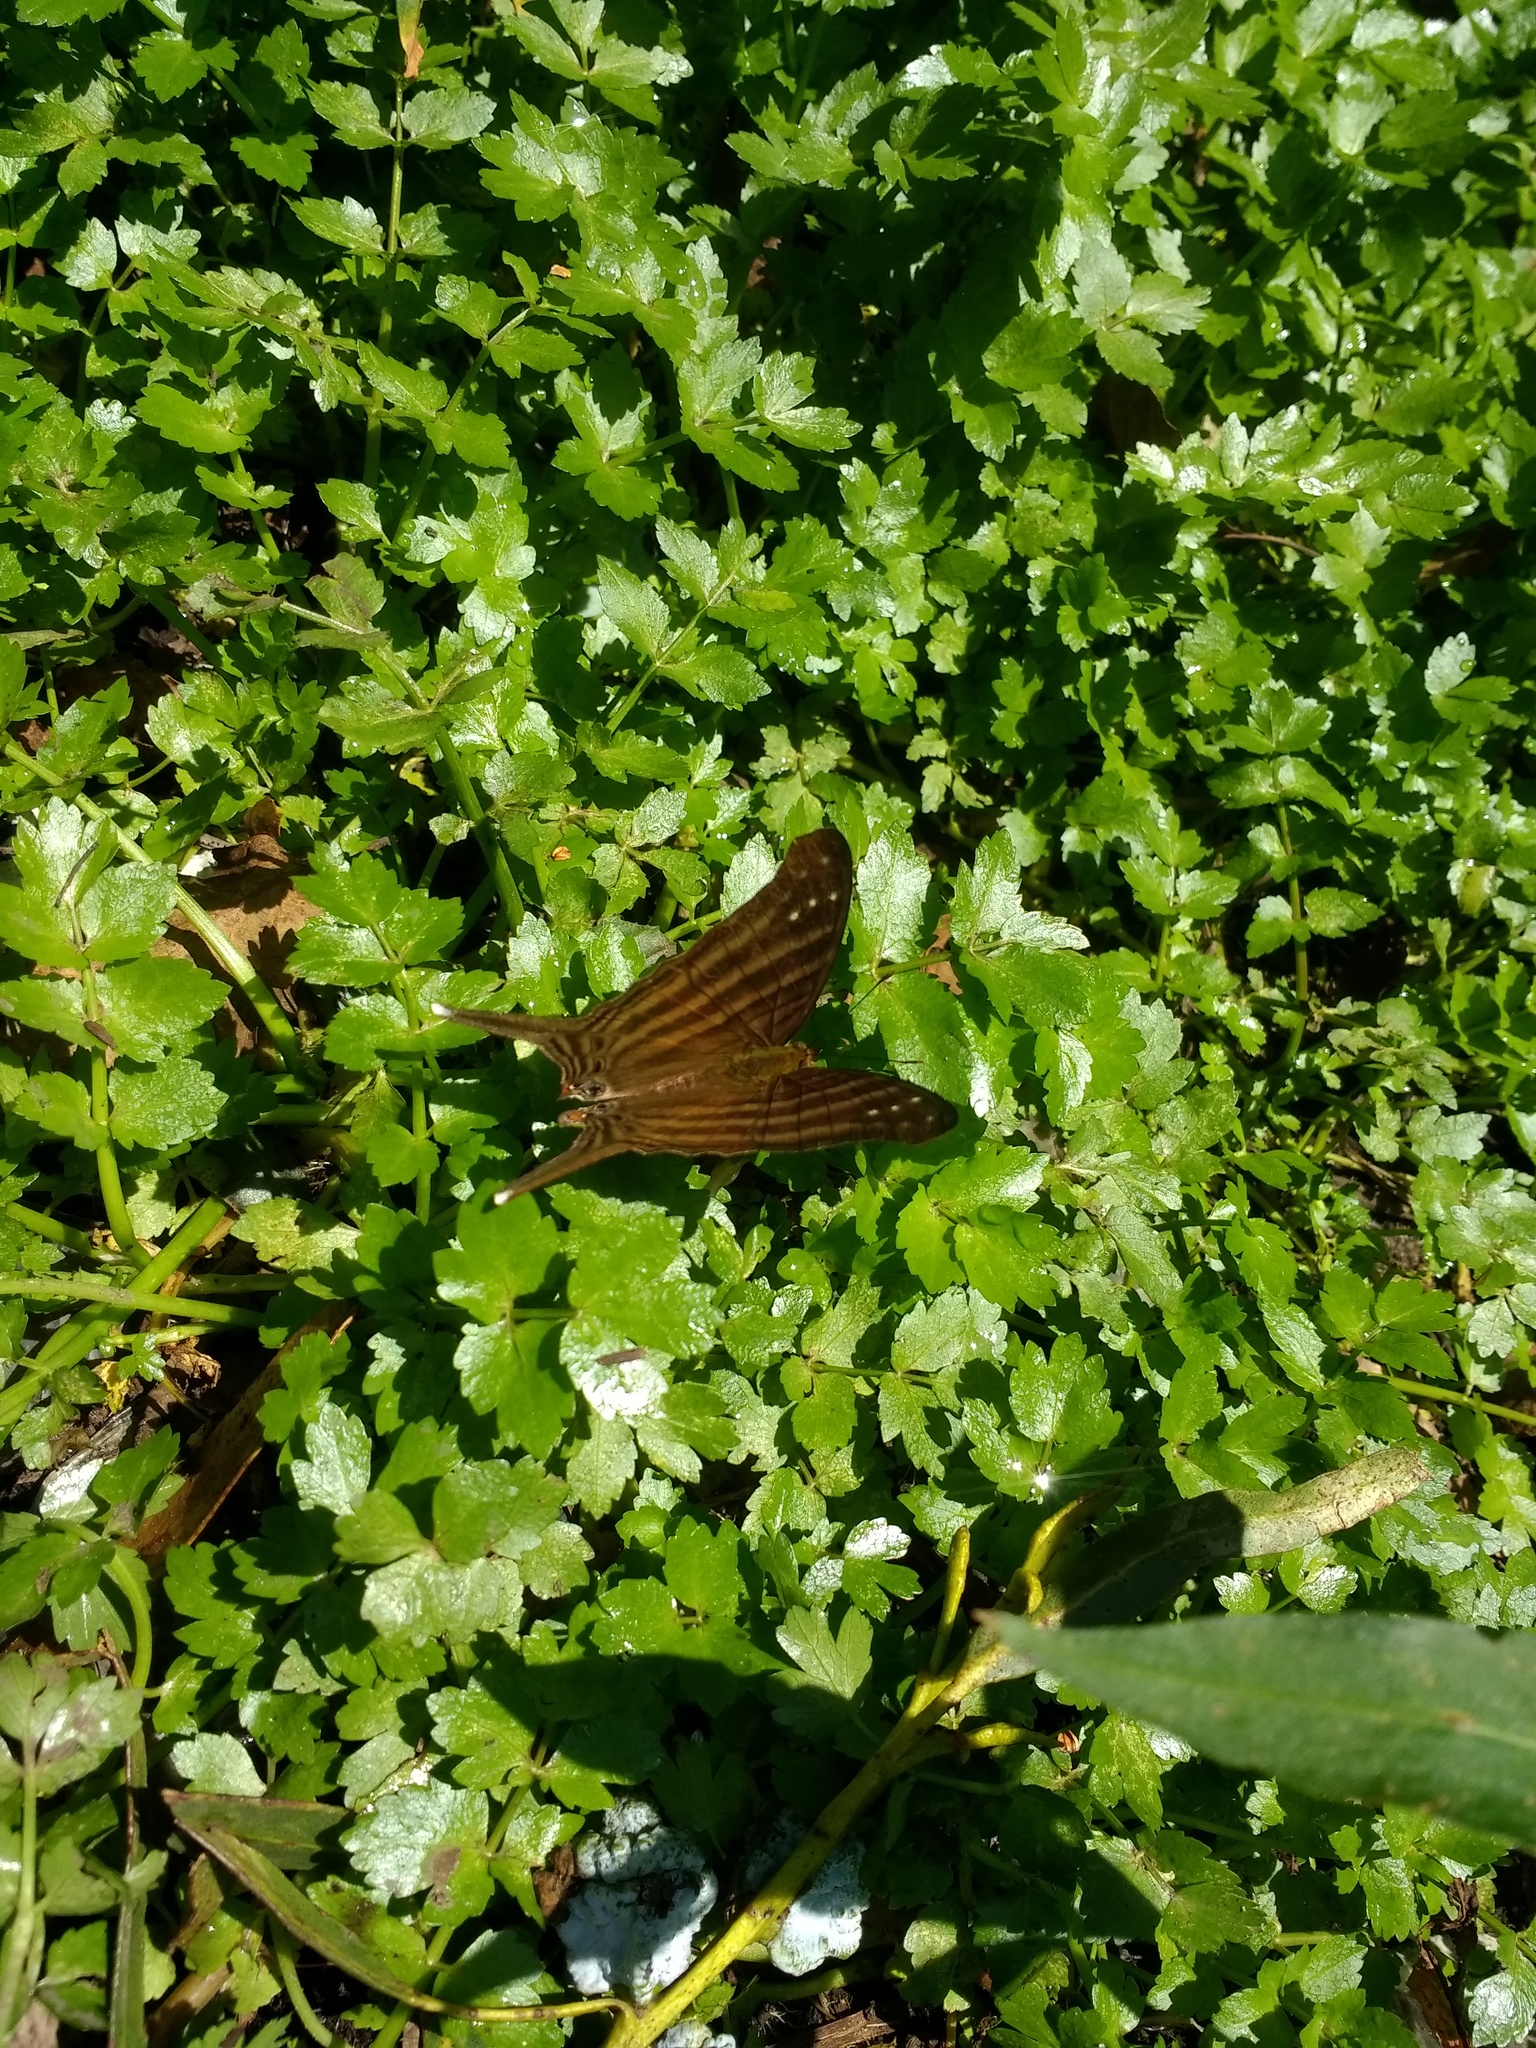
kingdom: Animalia
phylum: Arthropoda
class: Insecta
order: Lepidoptera
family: Nymphalidae
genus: Marpesia
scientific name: Marpesia chiron
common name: Many-banded daggerwing
